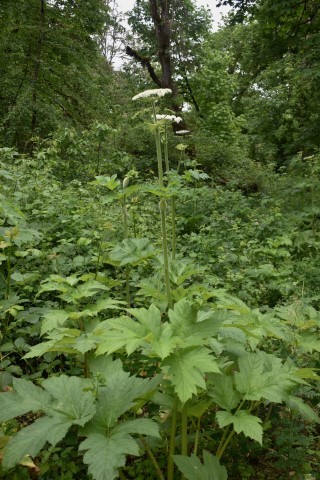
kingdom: Plantae
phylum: Tracheophyta
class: Magnoliopsida
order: Apiales
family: Apiaceae
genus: Heracleum
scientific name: Heracleum maximum
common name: American cow parsnip
